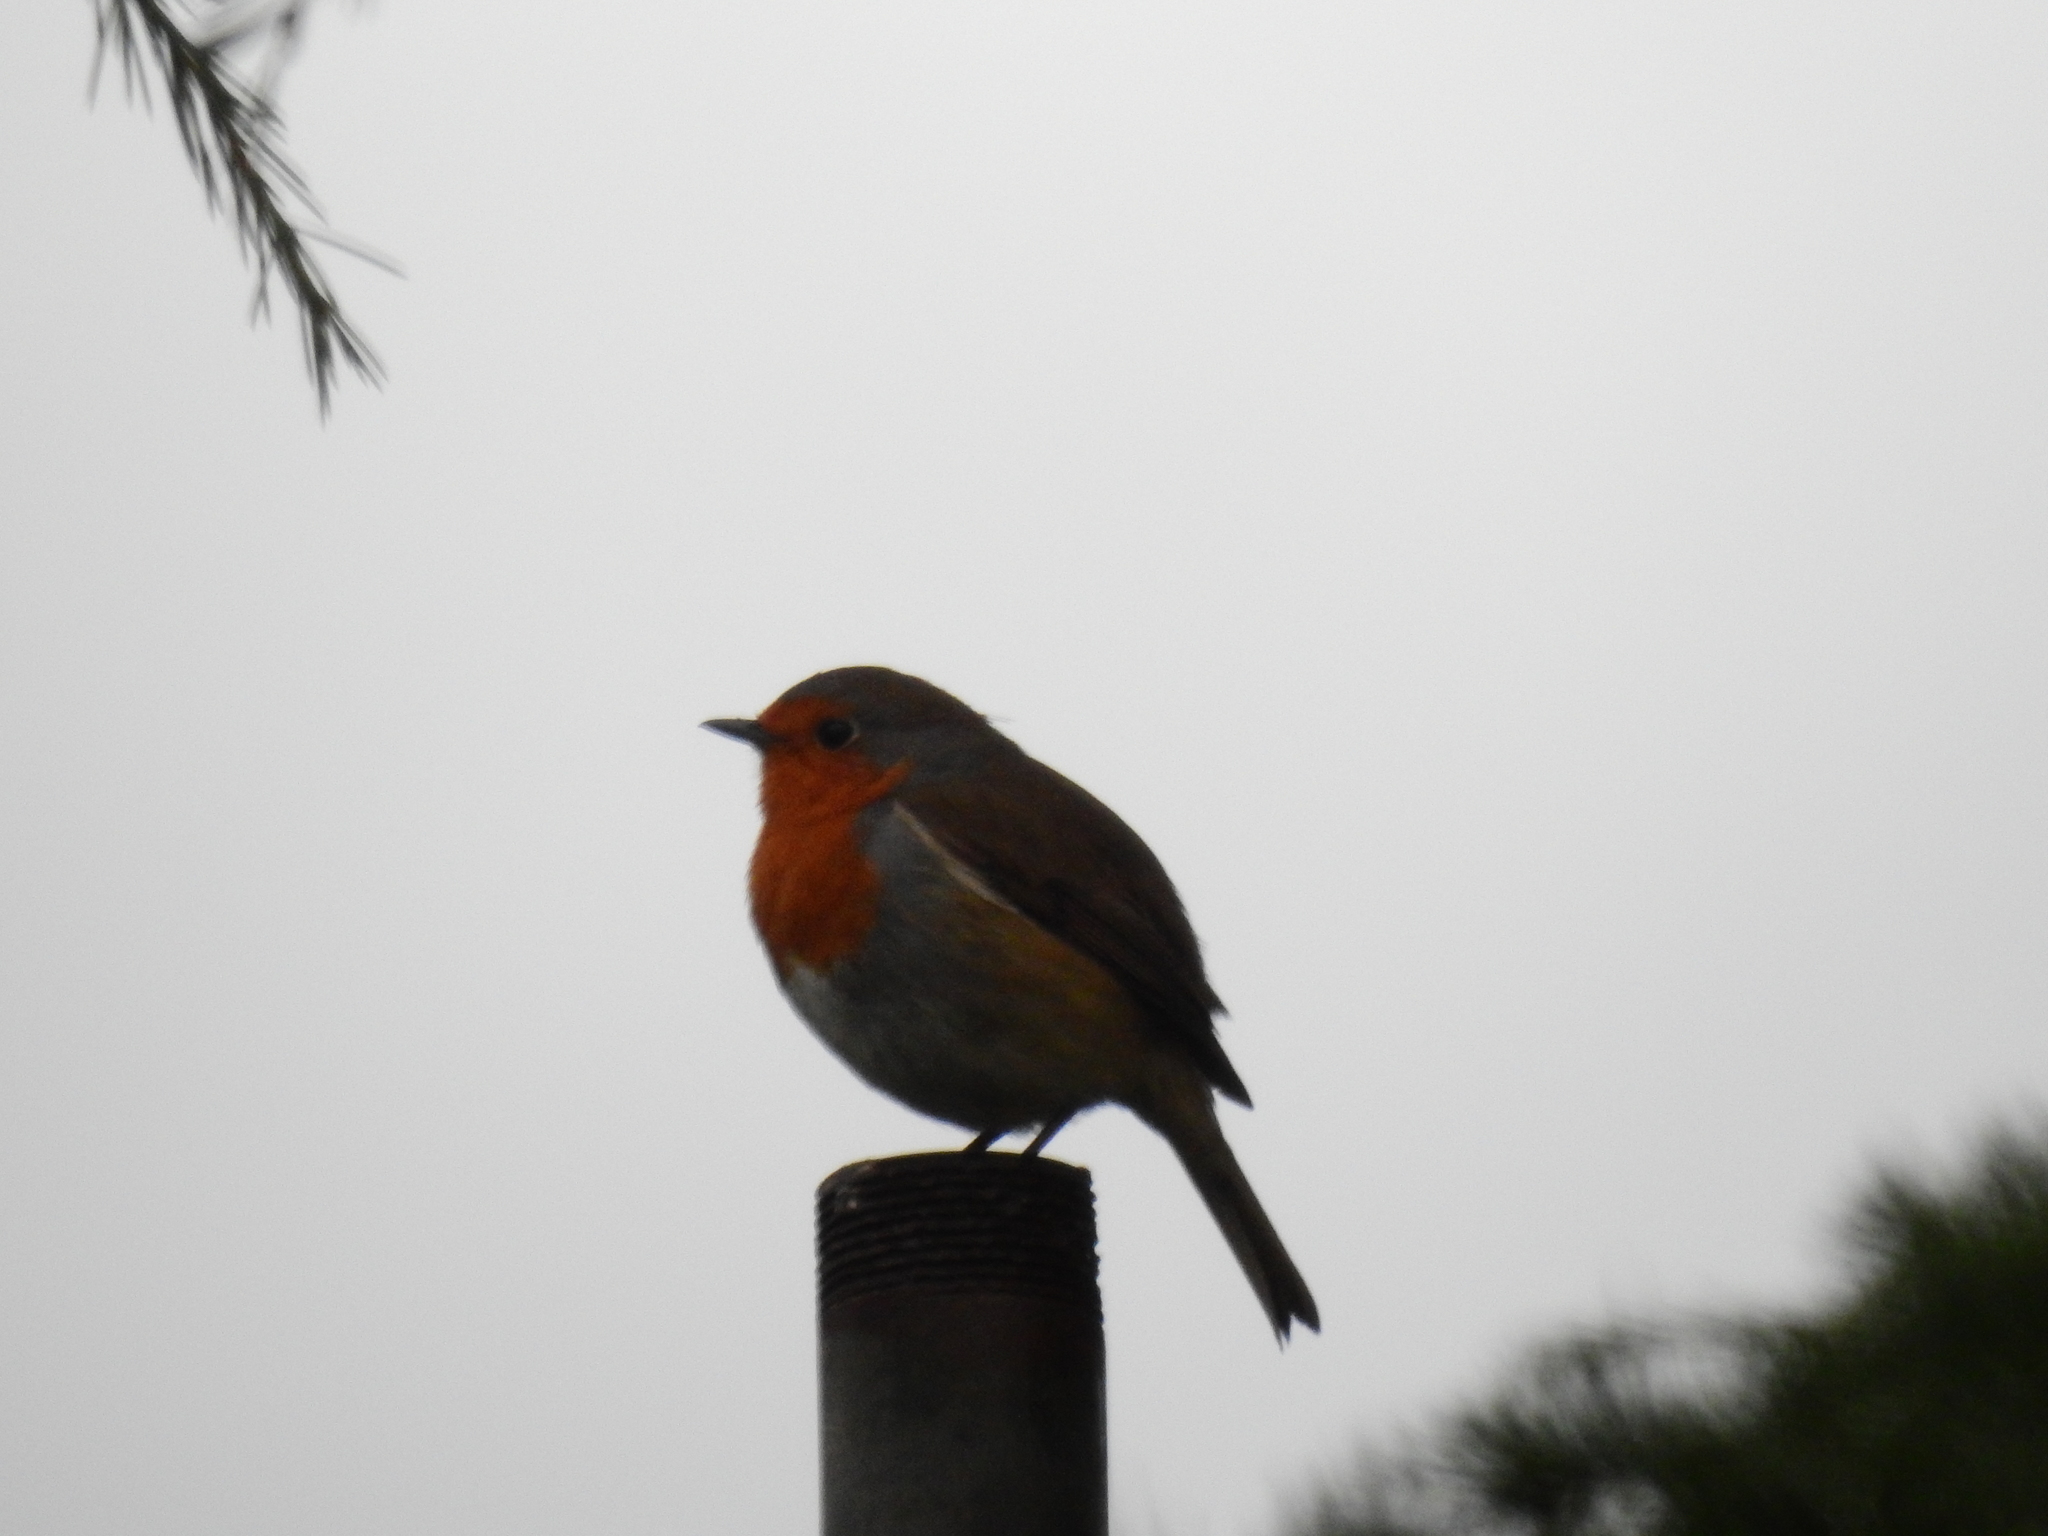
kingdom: Animalia
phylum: Chordata
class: Aves
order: Passeriformes
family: Muscicapidae
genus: Erithacus
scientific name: Erithacus rubecula
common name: European robin
